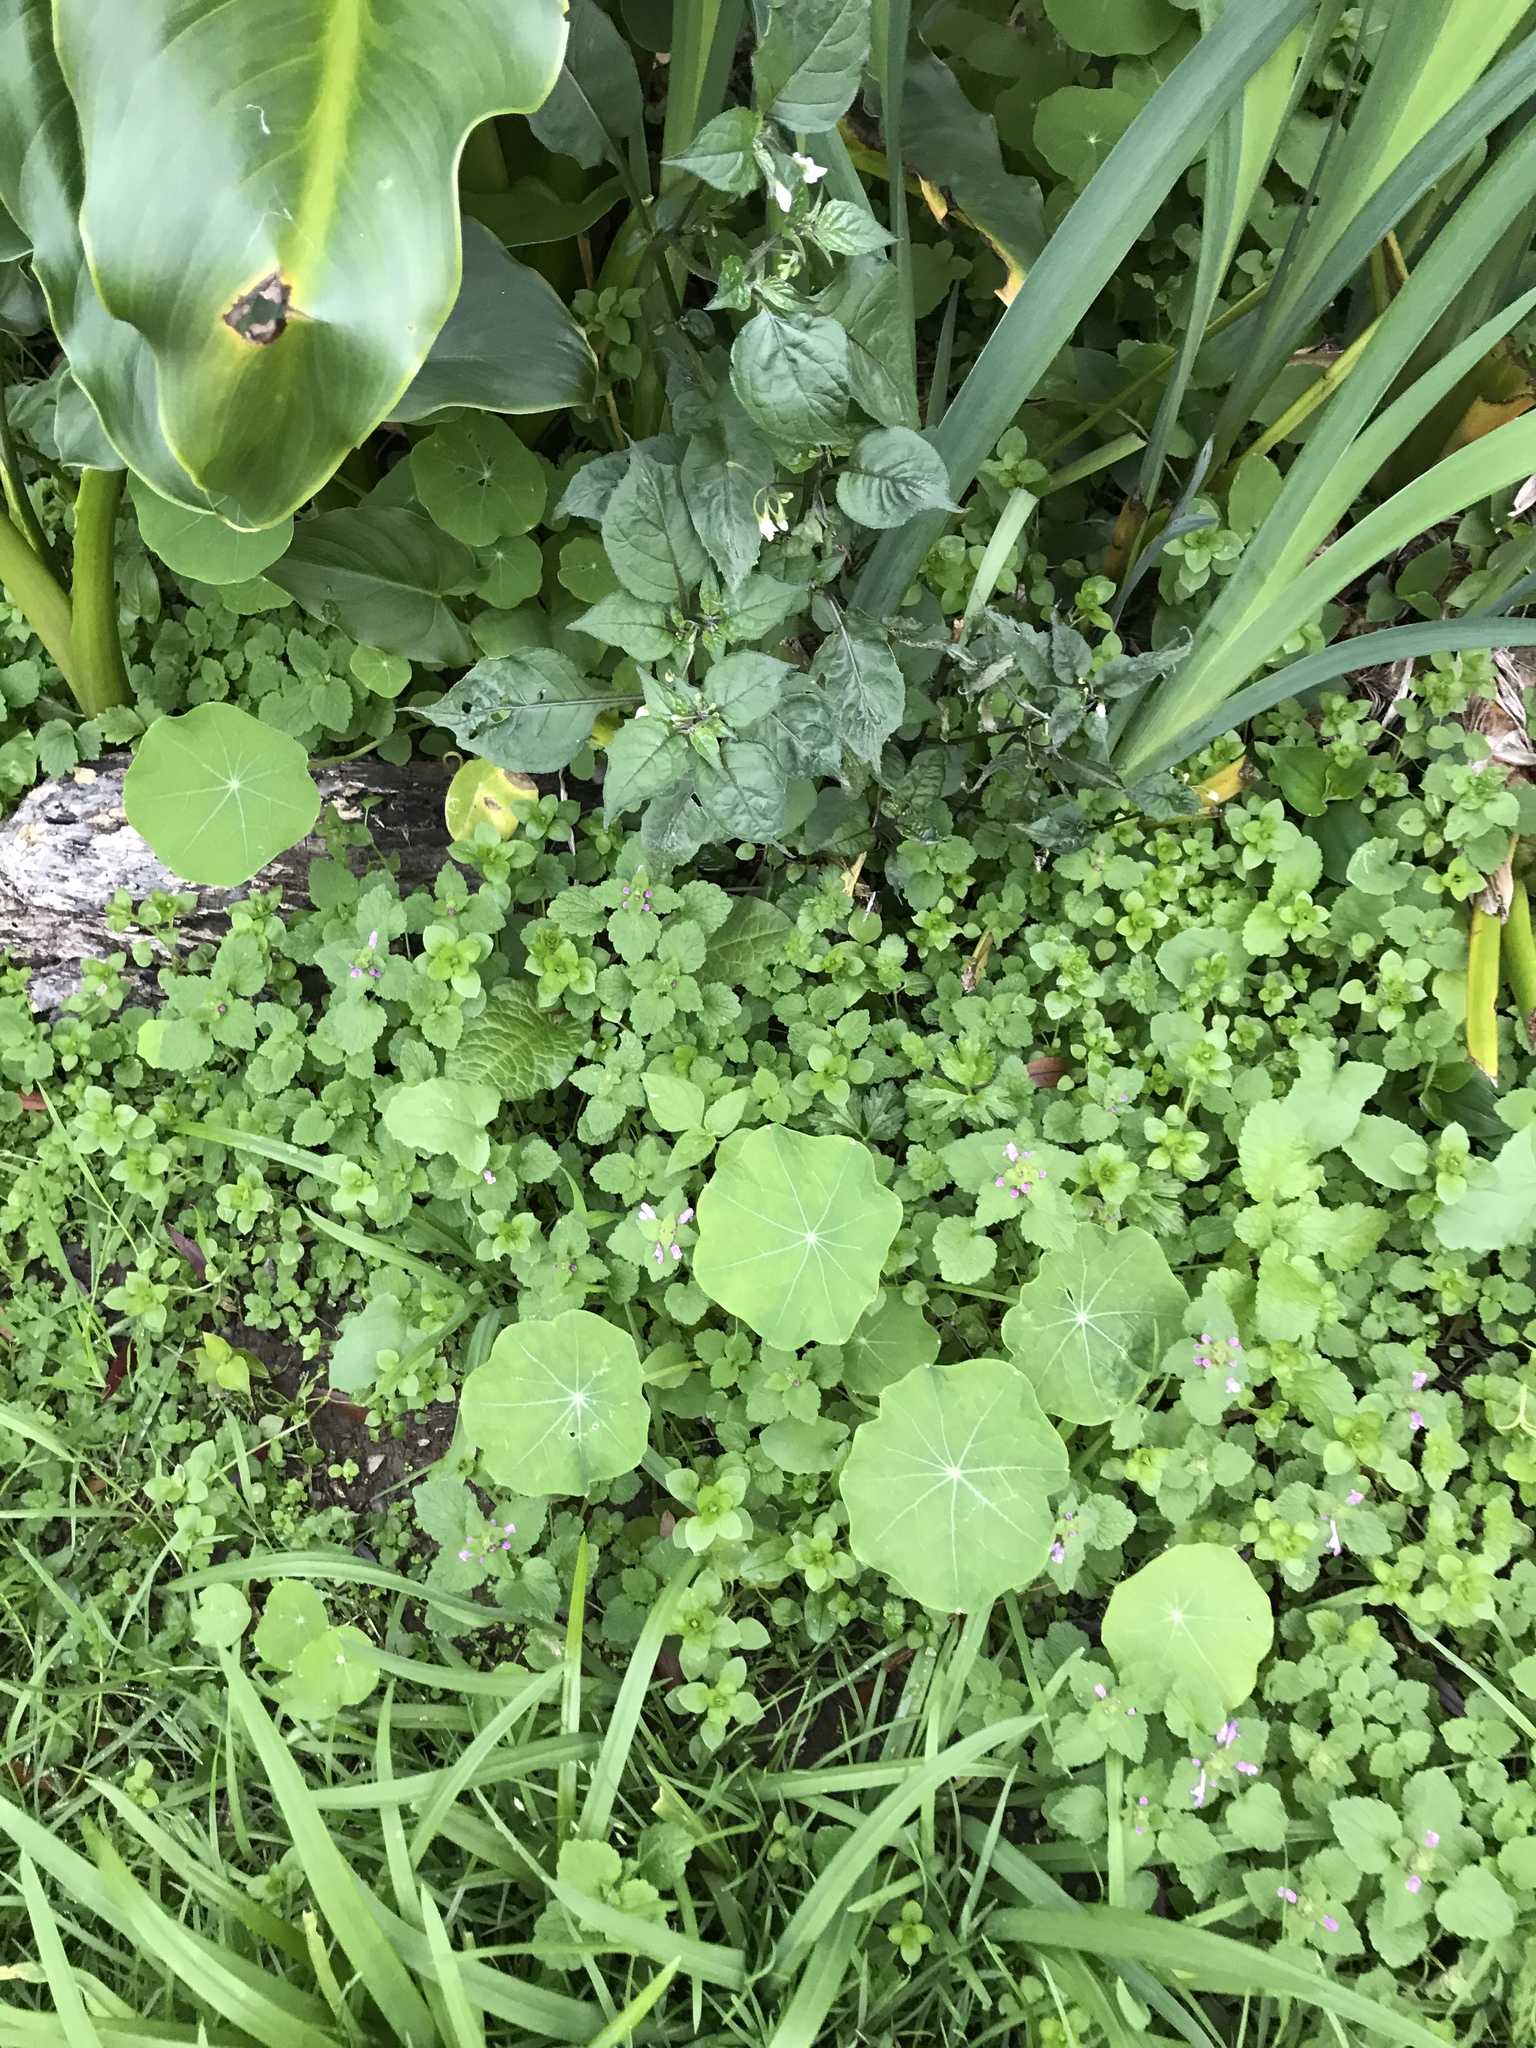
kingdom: Plantae
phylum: Tracheophyta
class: Magnoliopsida
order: Brassicales
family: Tropaeolaceae
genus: Tropaeolum
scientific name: Tropaeolum majus
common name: Nasturtium
